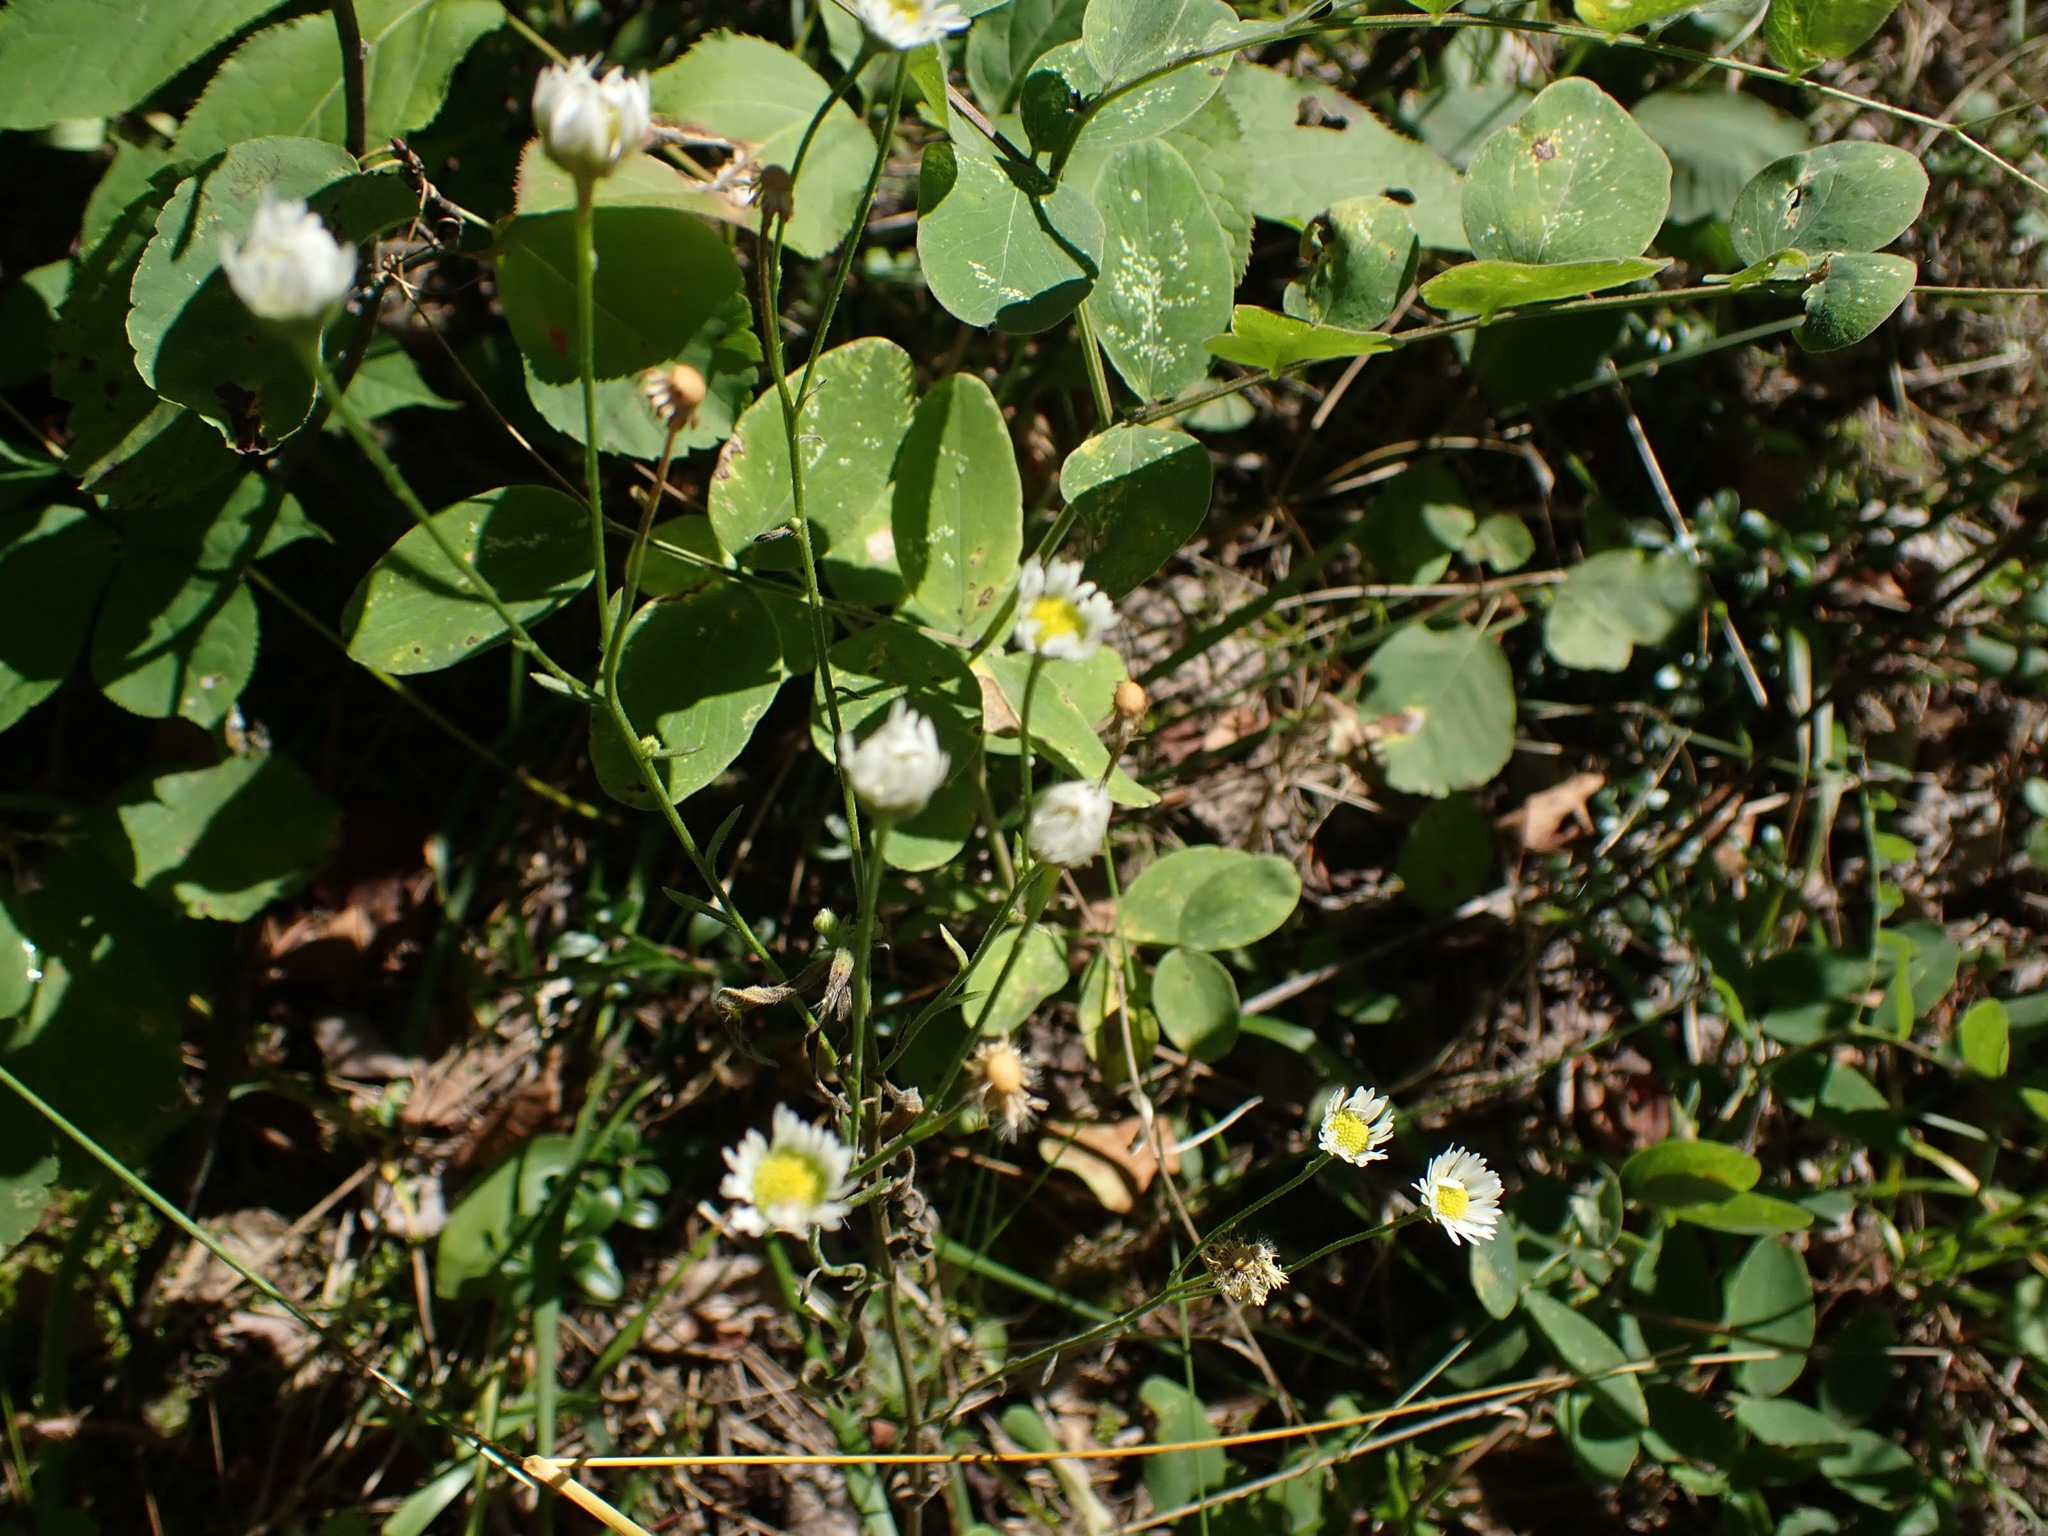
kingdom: Plantae
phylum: Tracheophyta
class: Magnoliopsida
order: Asterales
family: Asteraceae
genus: Erigeron
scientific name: Erigeron strigosus
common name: Common eastern fleabane
